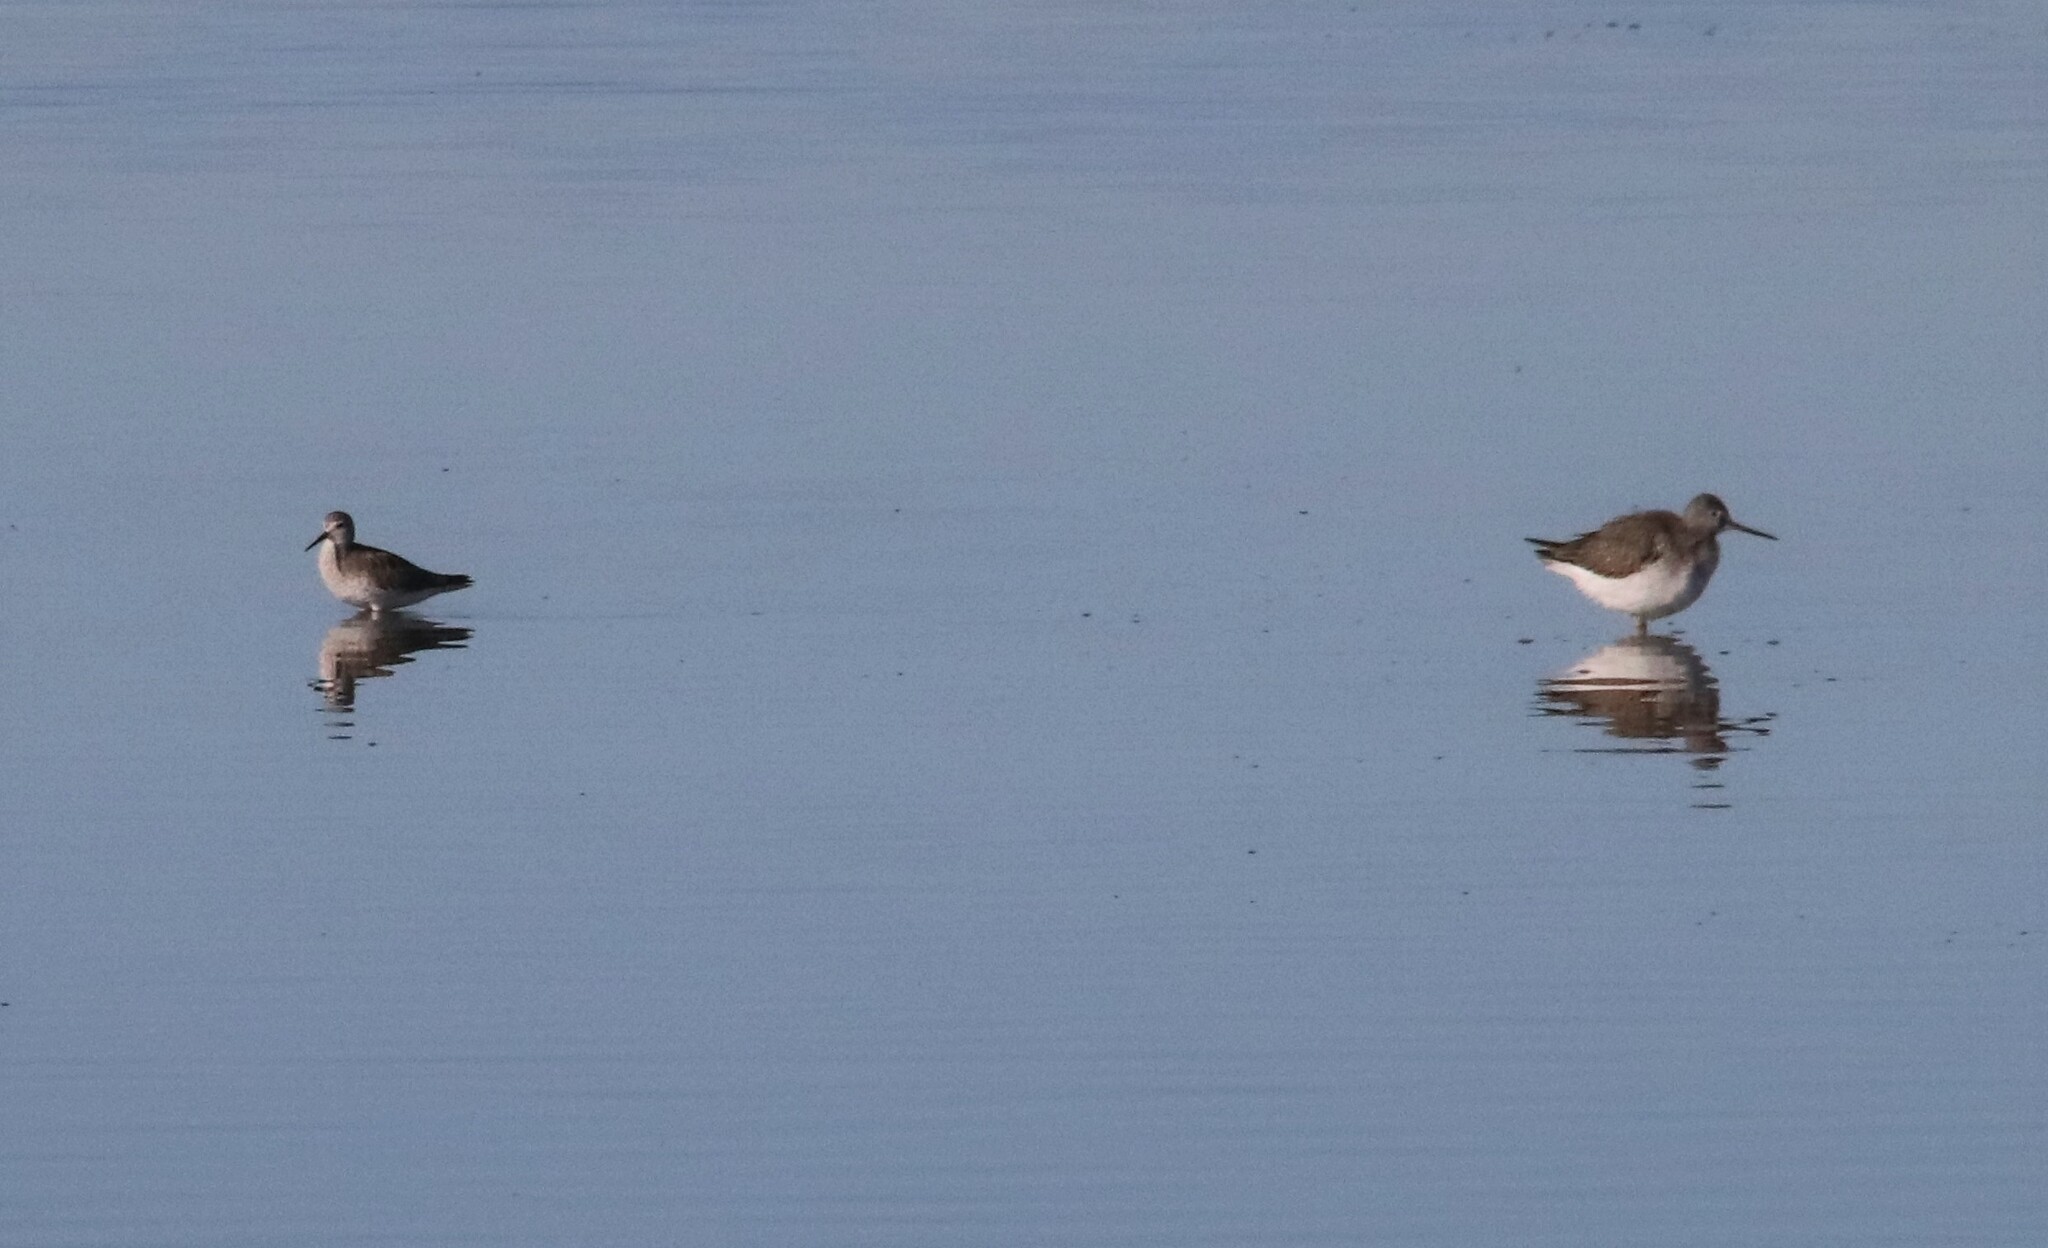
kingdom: Animalia
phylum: Chordata
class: Aves
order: Charadriiformes
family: Scolopacidae
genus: Tringa
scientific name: Tringa flavipes
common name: Lesser yellowlegs
